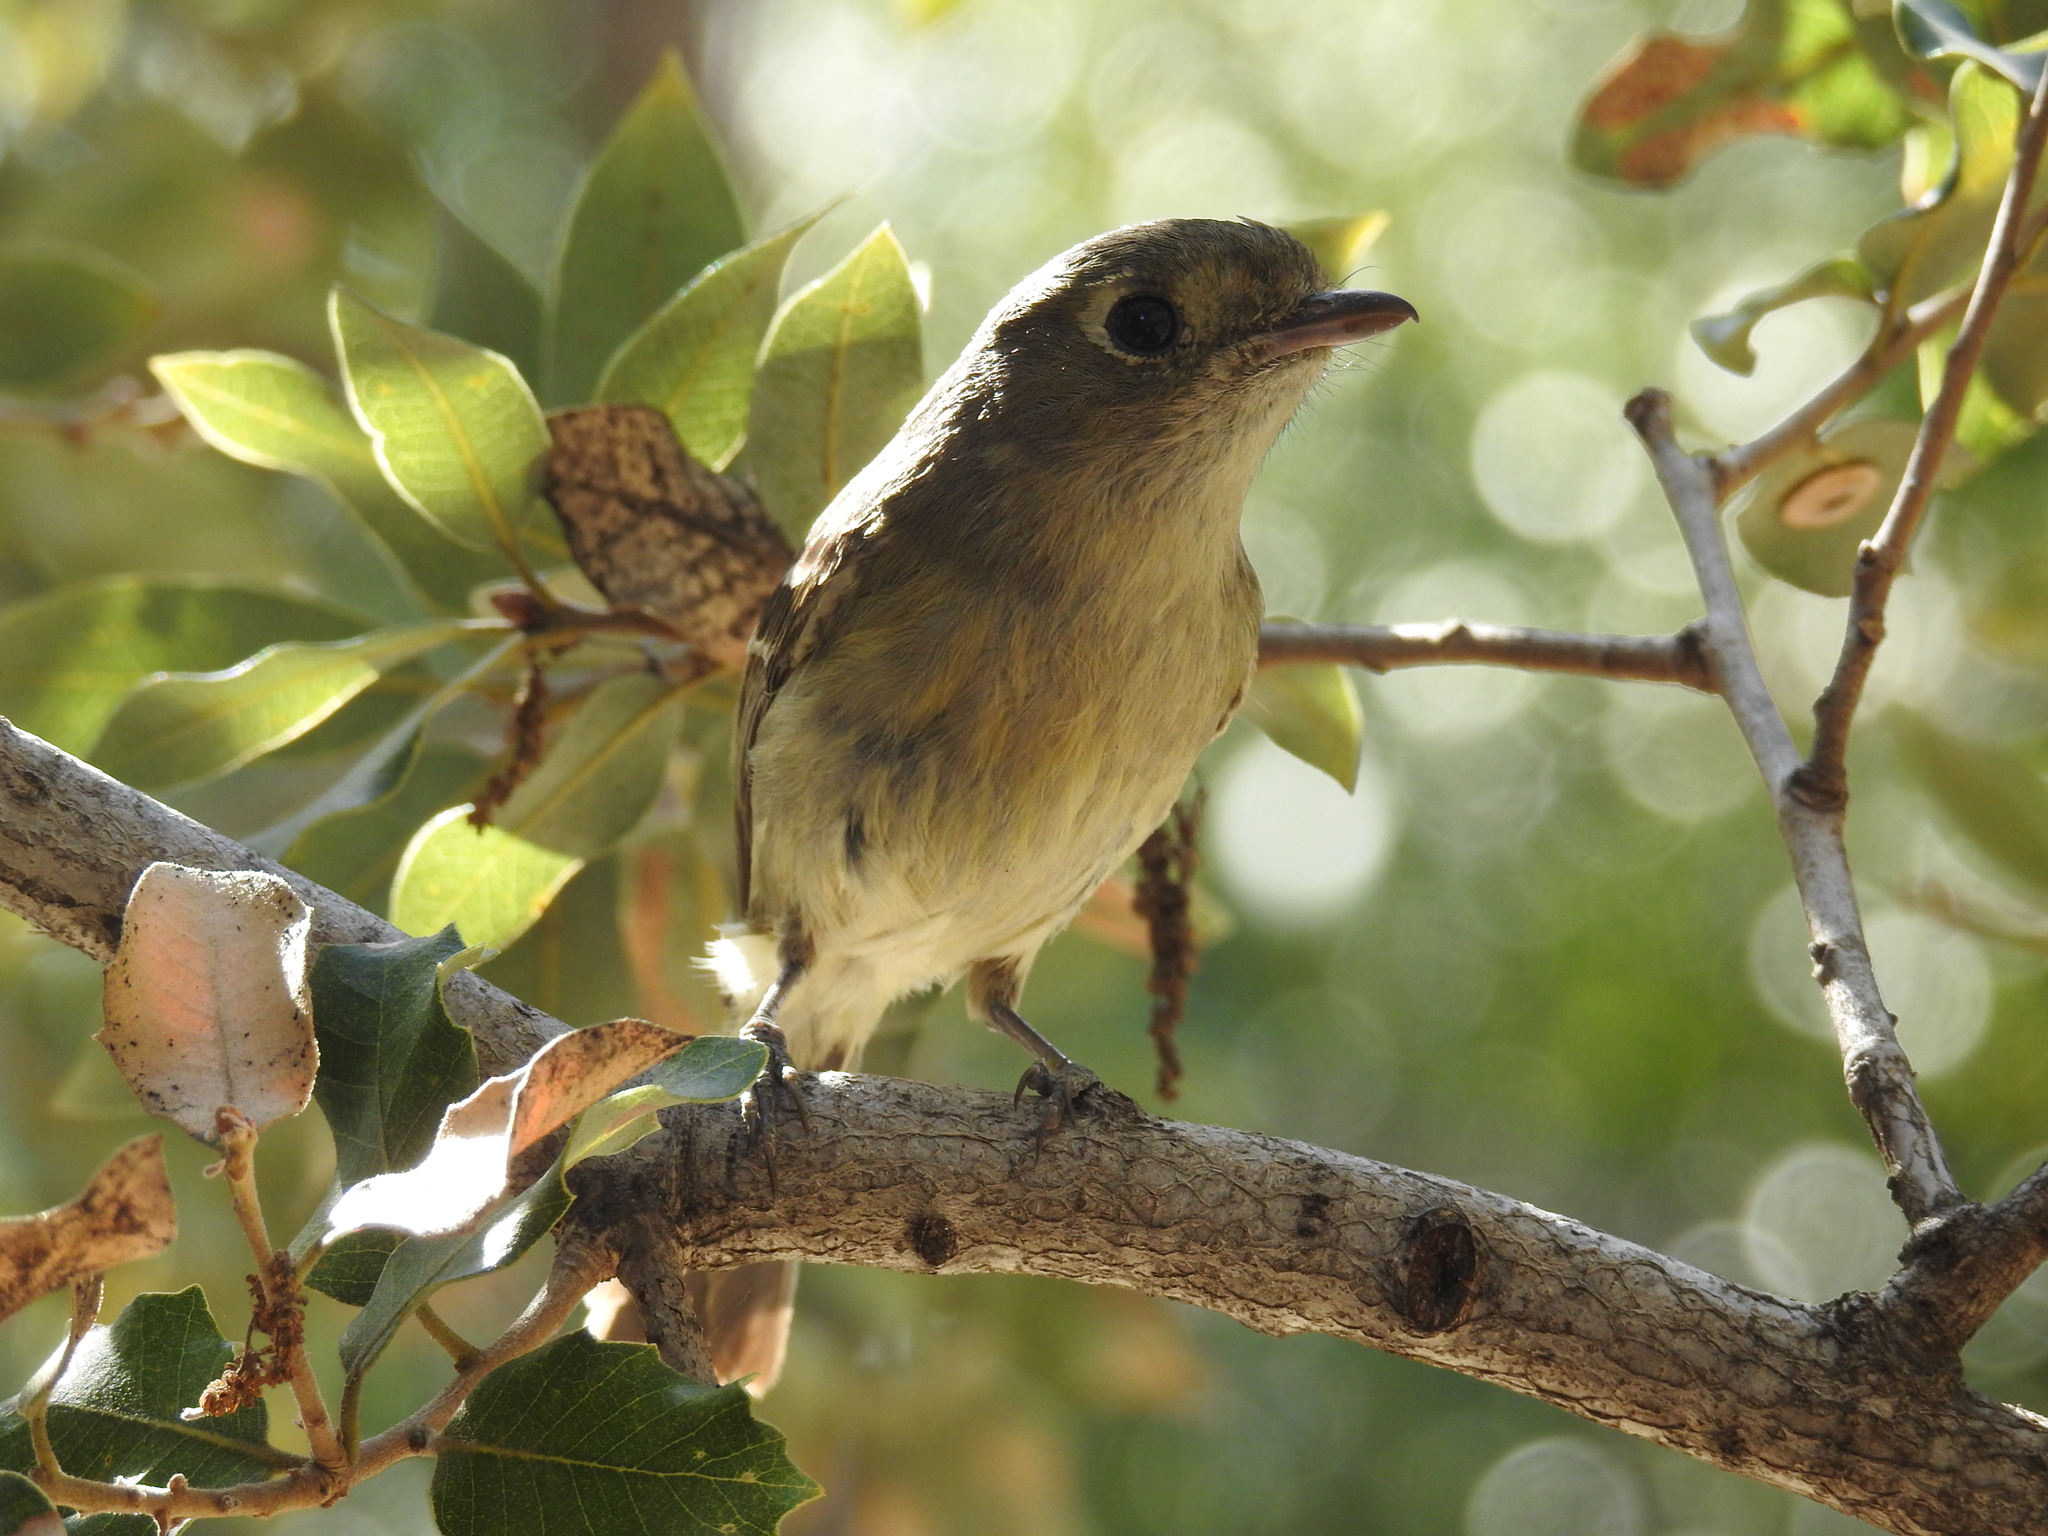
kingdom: Animalia
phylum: Chordata
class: Aves
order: Passeriformes
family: Vireonidae
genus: Vireo
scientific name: Vireo huttoni
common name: Hutton's vireo
